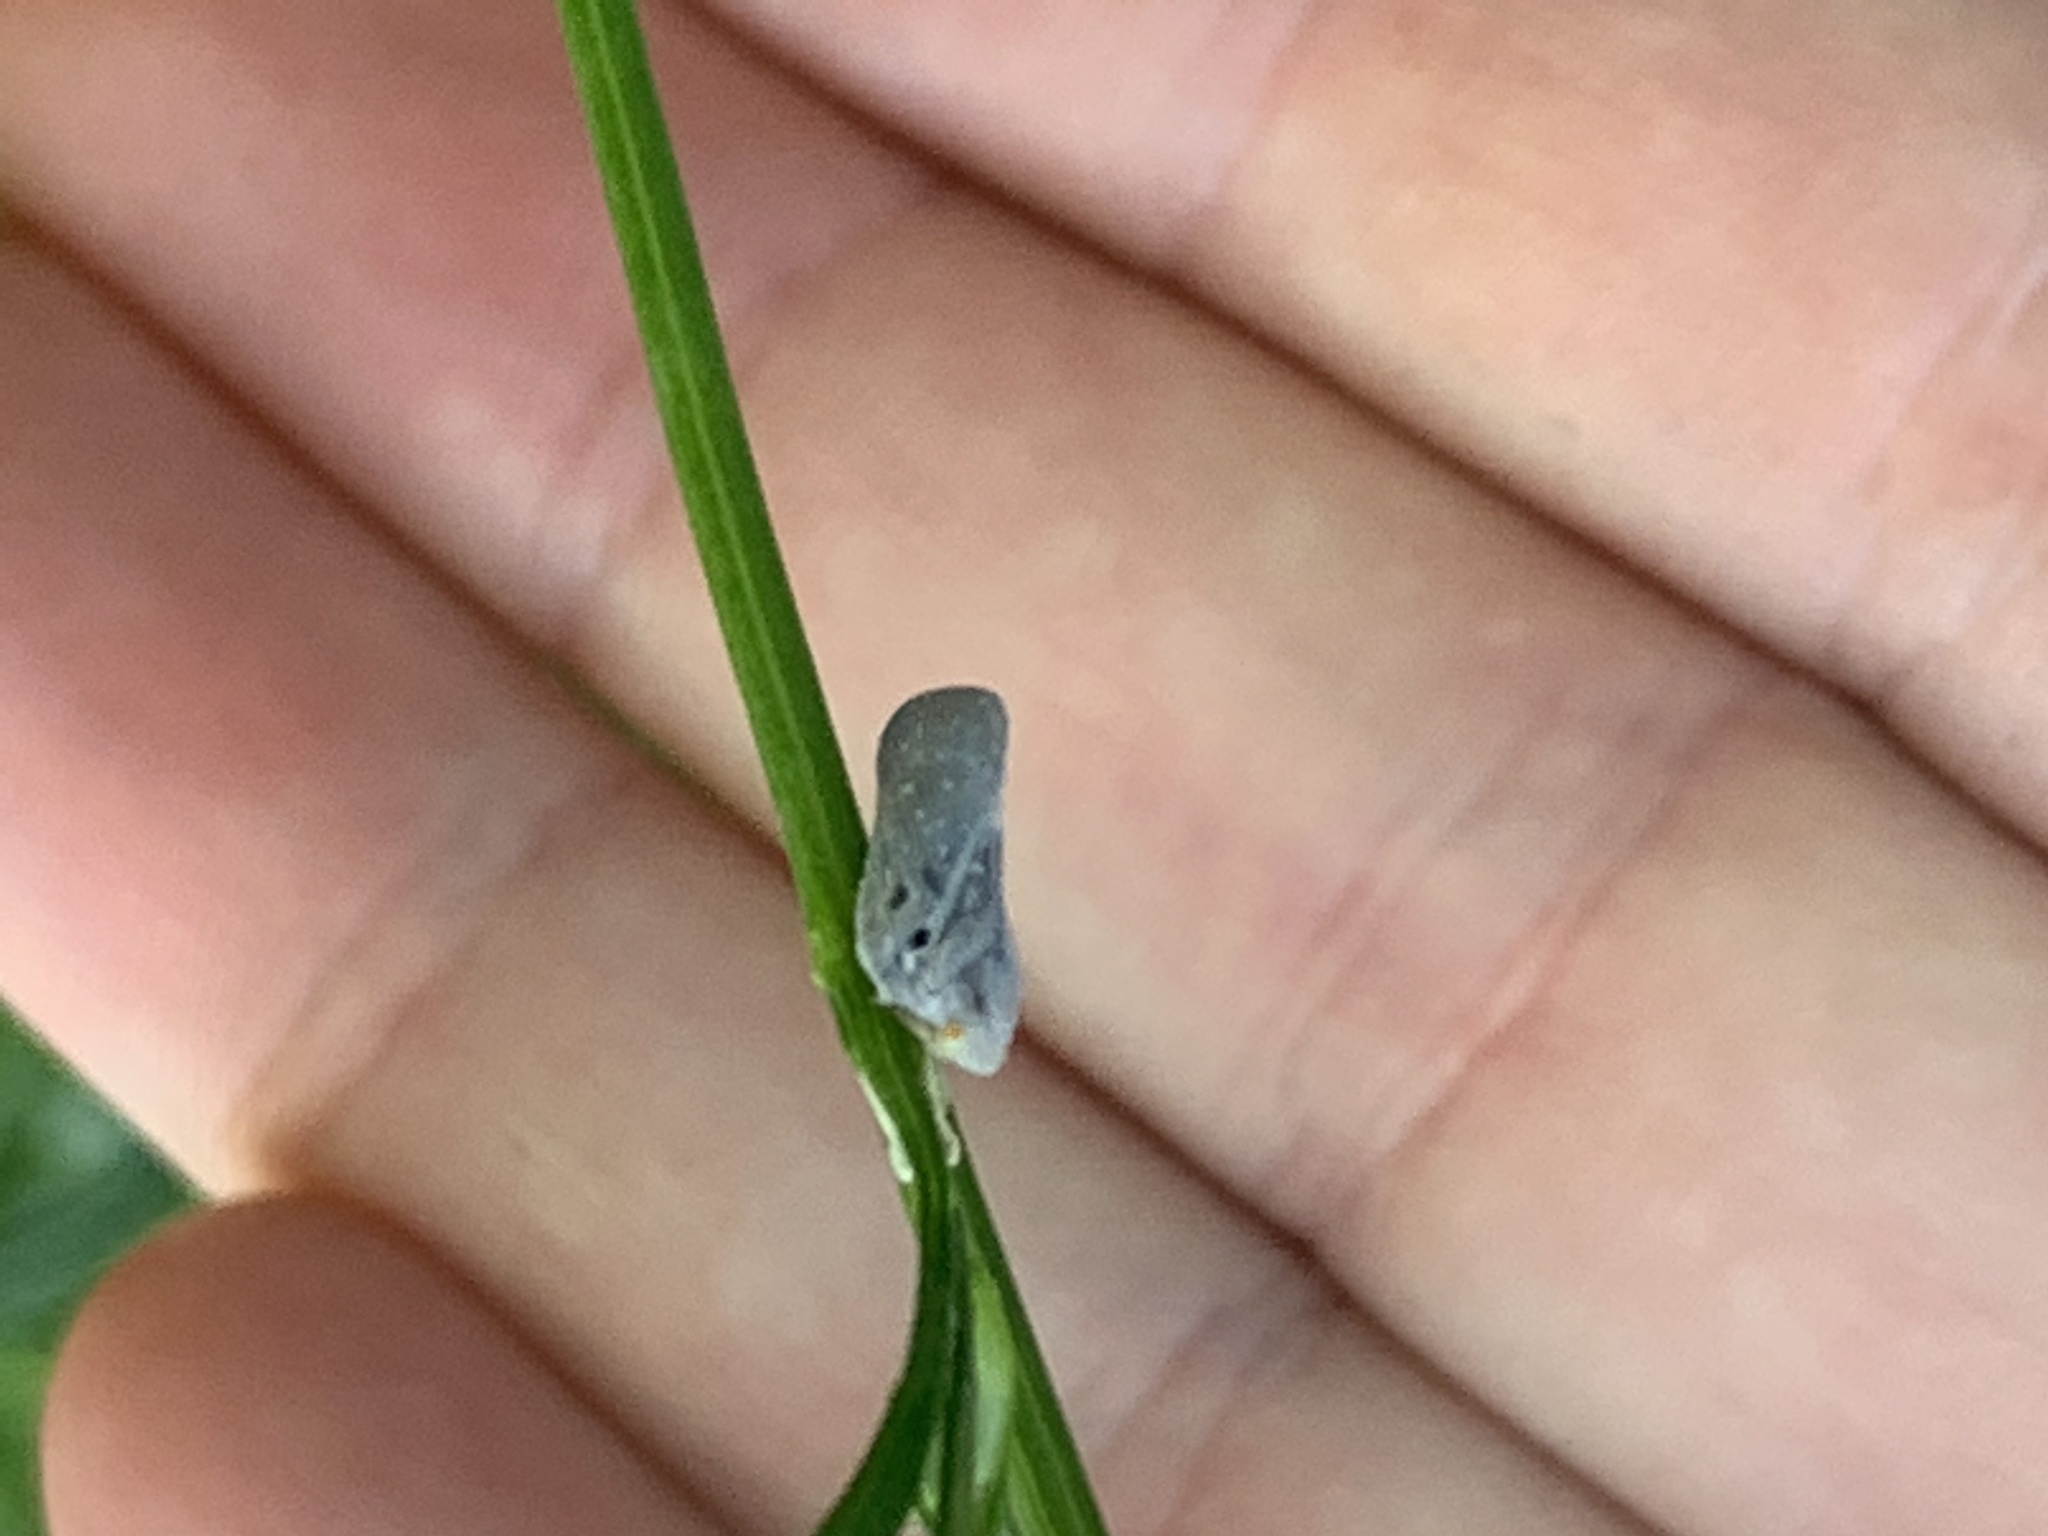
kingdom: Animalia
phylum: Arthropoda
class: Insecta
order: Hemiptera
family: Flatidae
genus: Metcalfa
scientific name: Metcalfa pruinosa
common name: Citrus flatid planthopper
